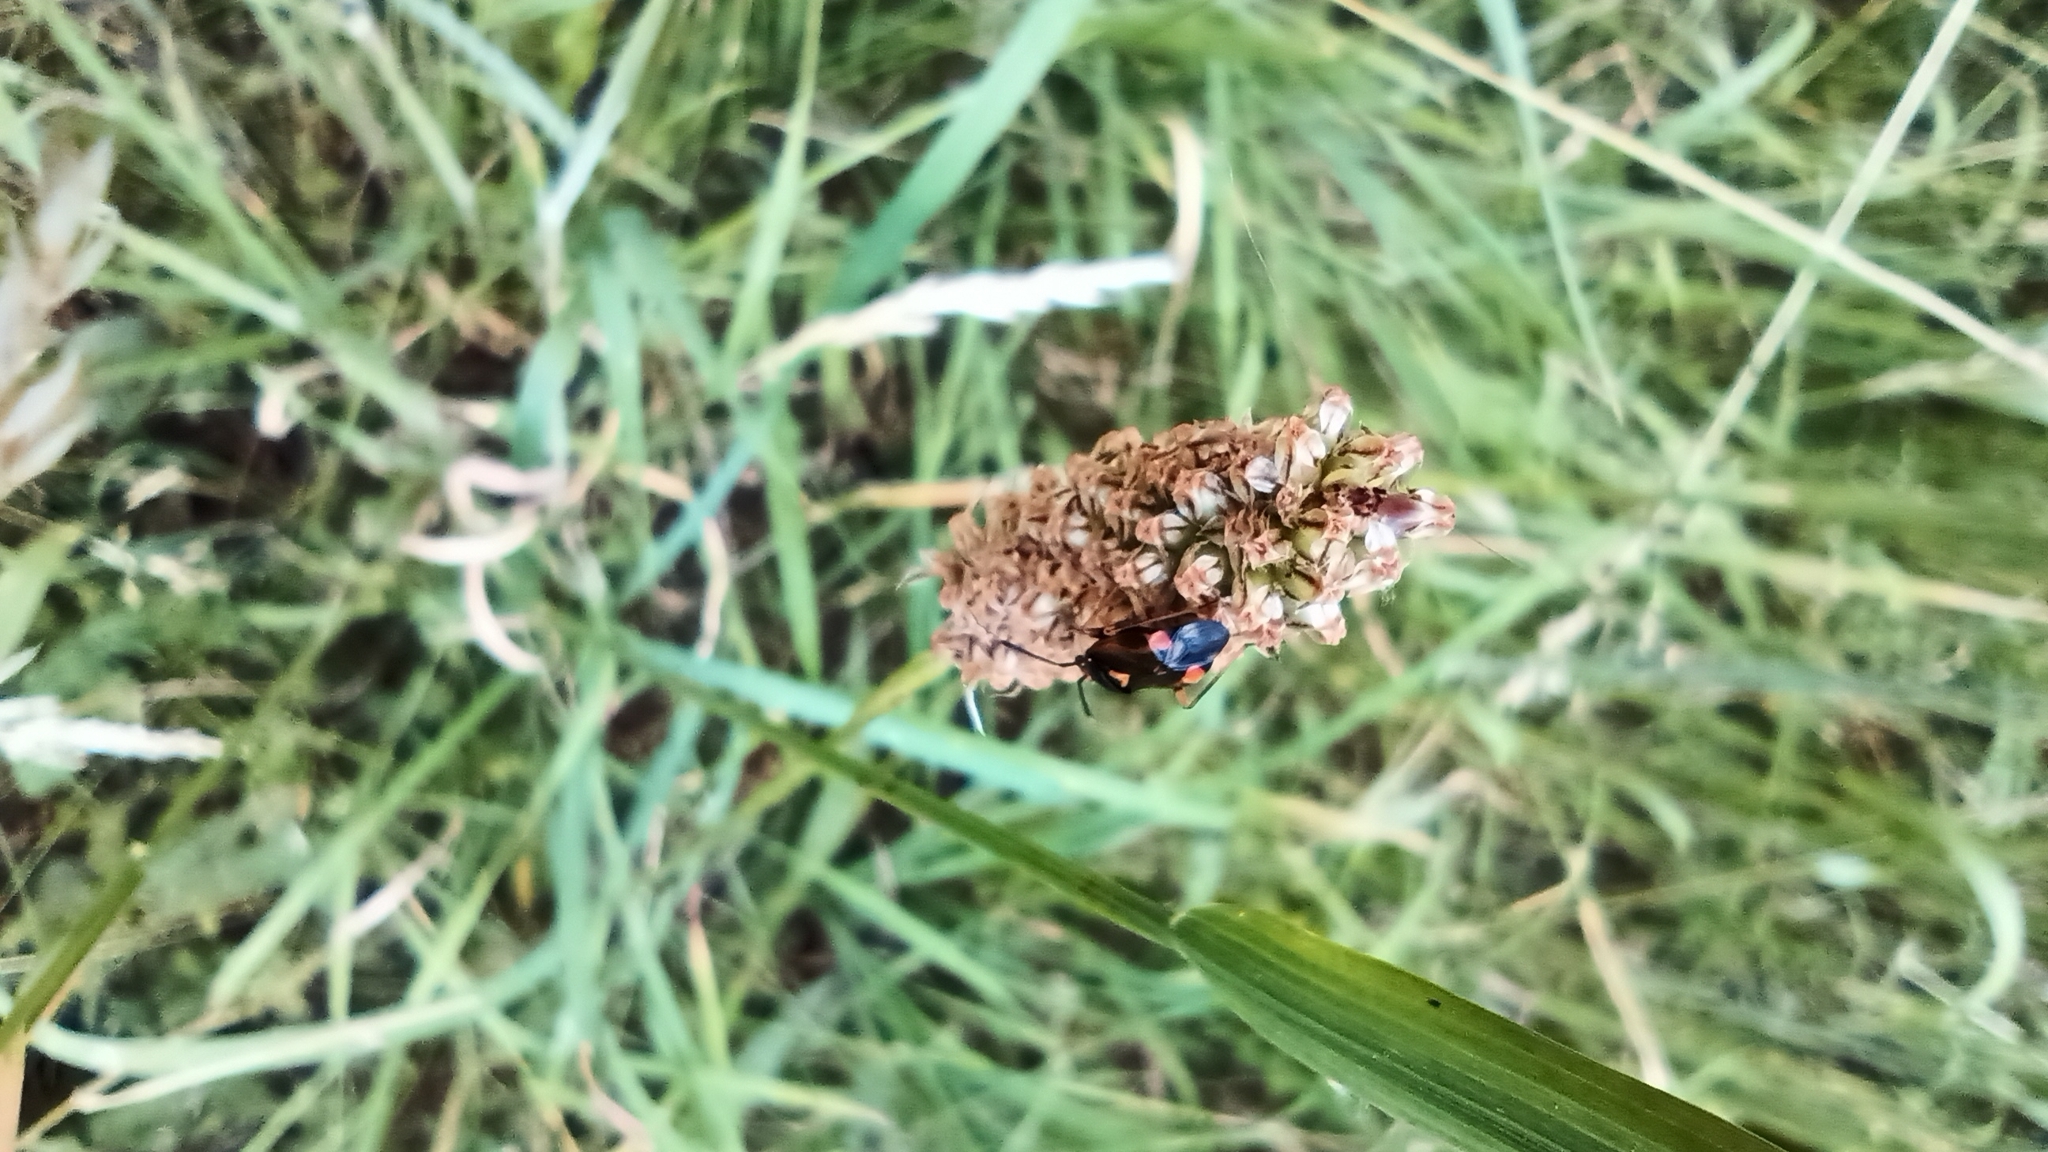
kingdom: Animalia
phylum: Arthropoda
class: Insecta
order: Hemiptera
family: Miridae
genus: Deraeocoris
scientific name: Deraeocoris ruber
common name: Plant bug
